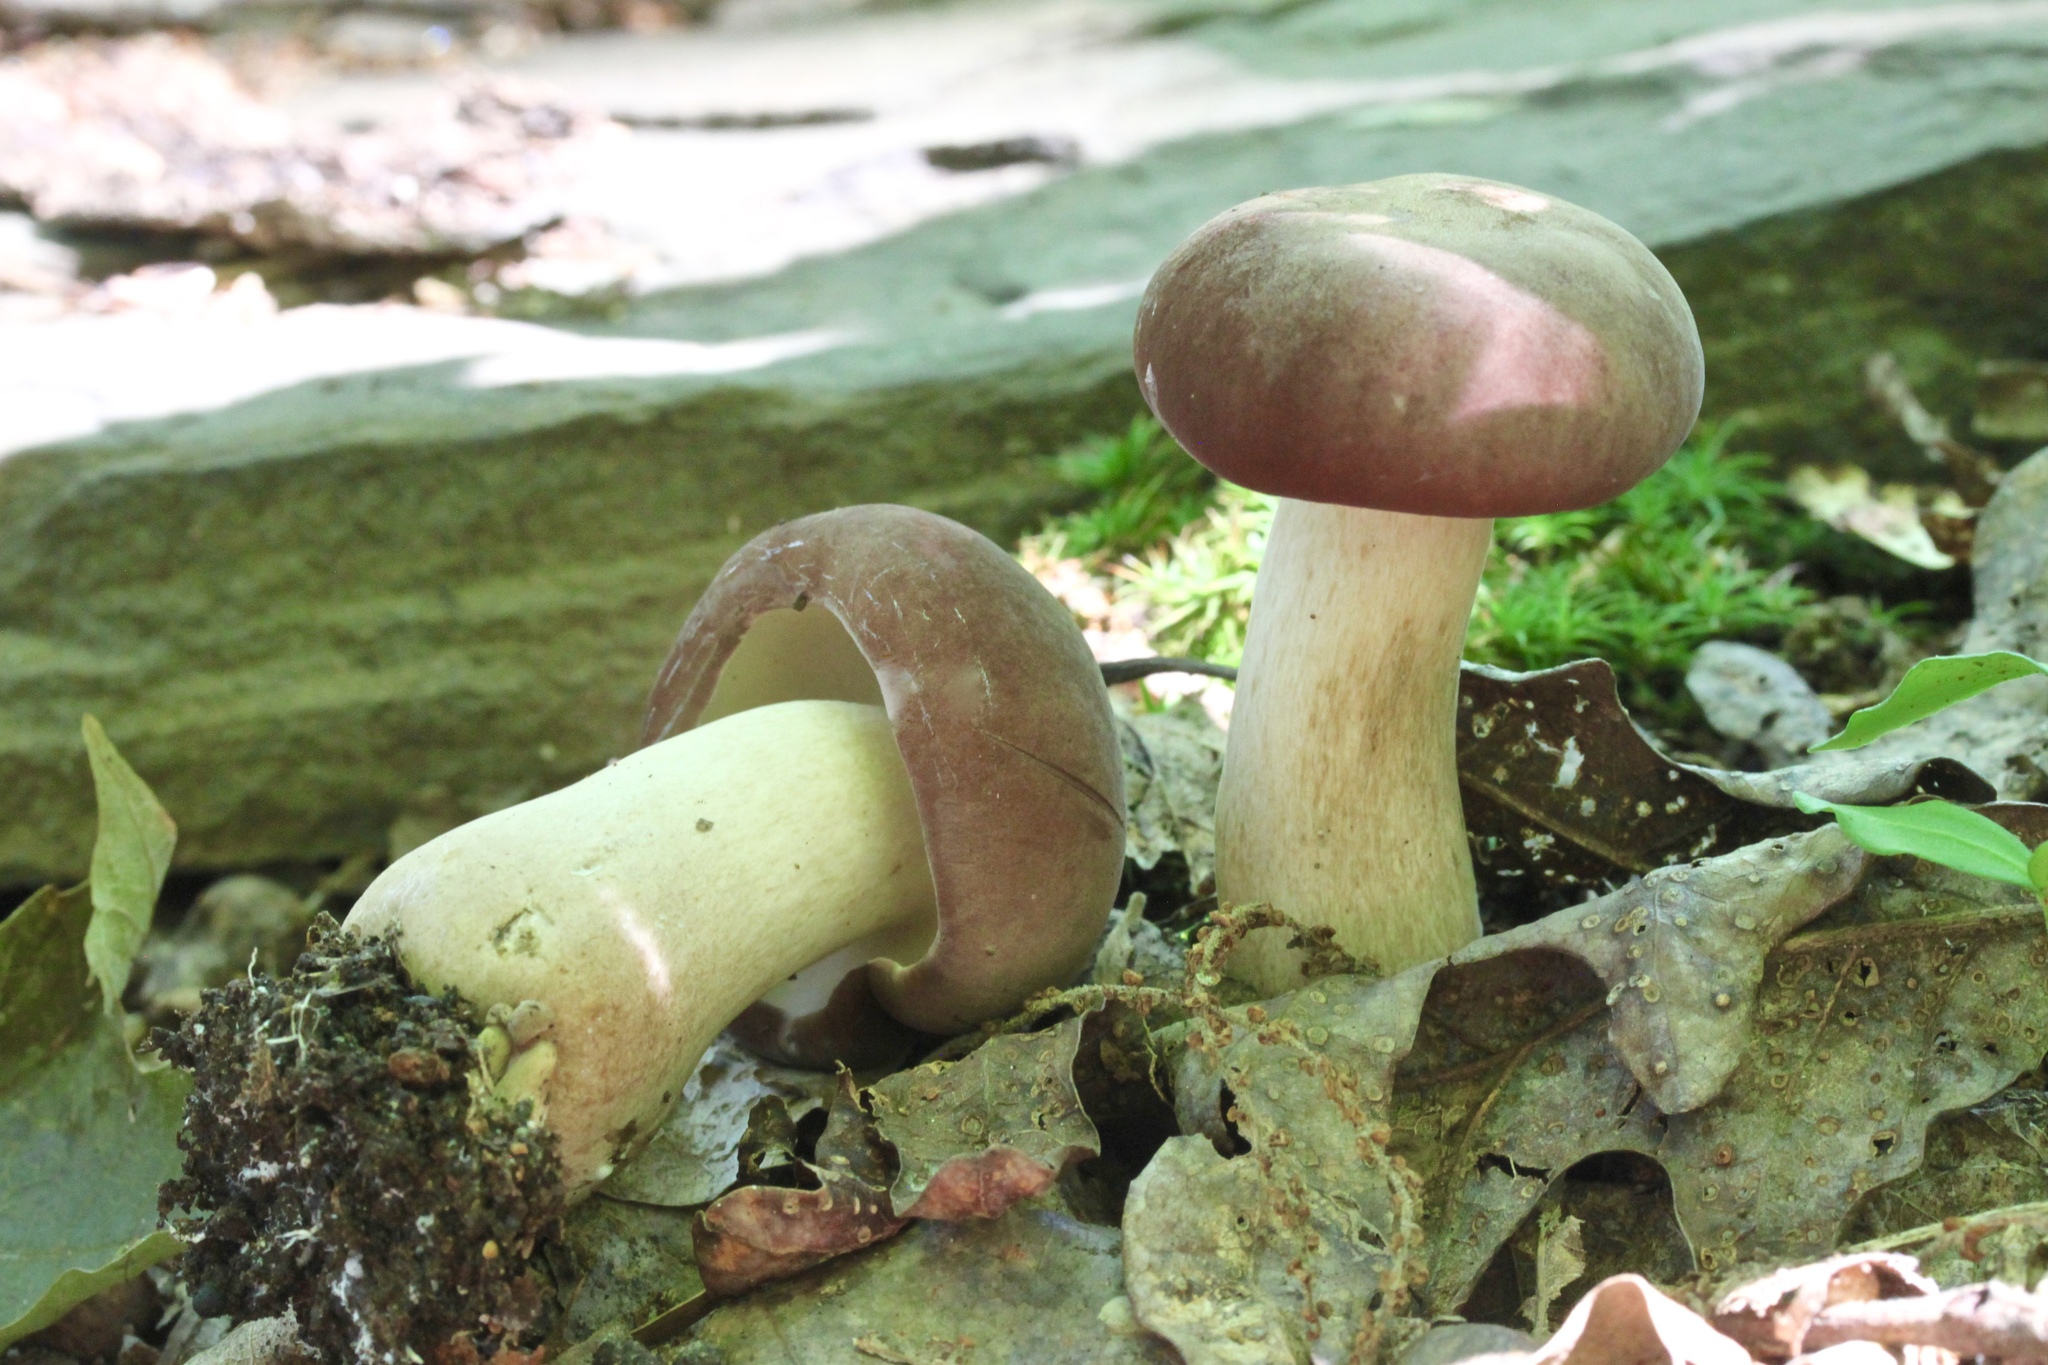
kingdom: Fungi
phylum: Basidiomycota
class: Agaricomycetes
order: Boletales
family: Boletaceae
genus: Tylopilus
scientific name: Tylopilus rubrobrunneus
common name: Reddish brown bitter bolete
